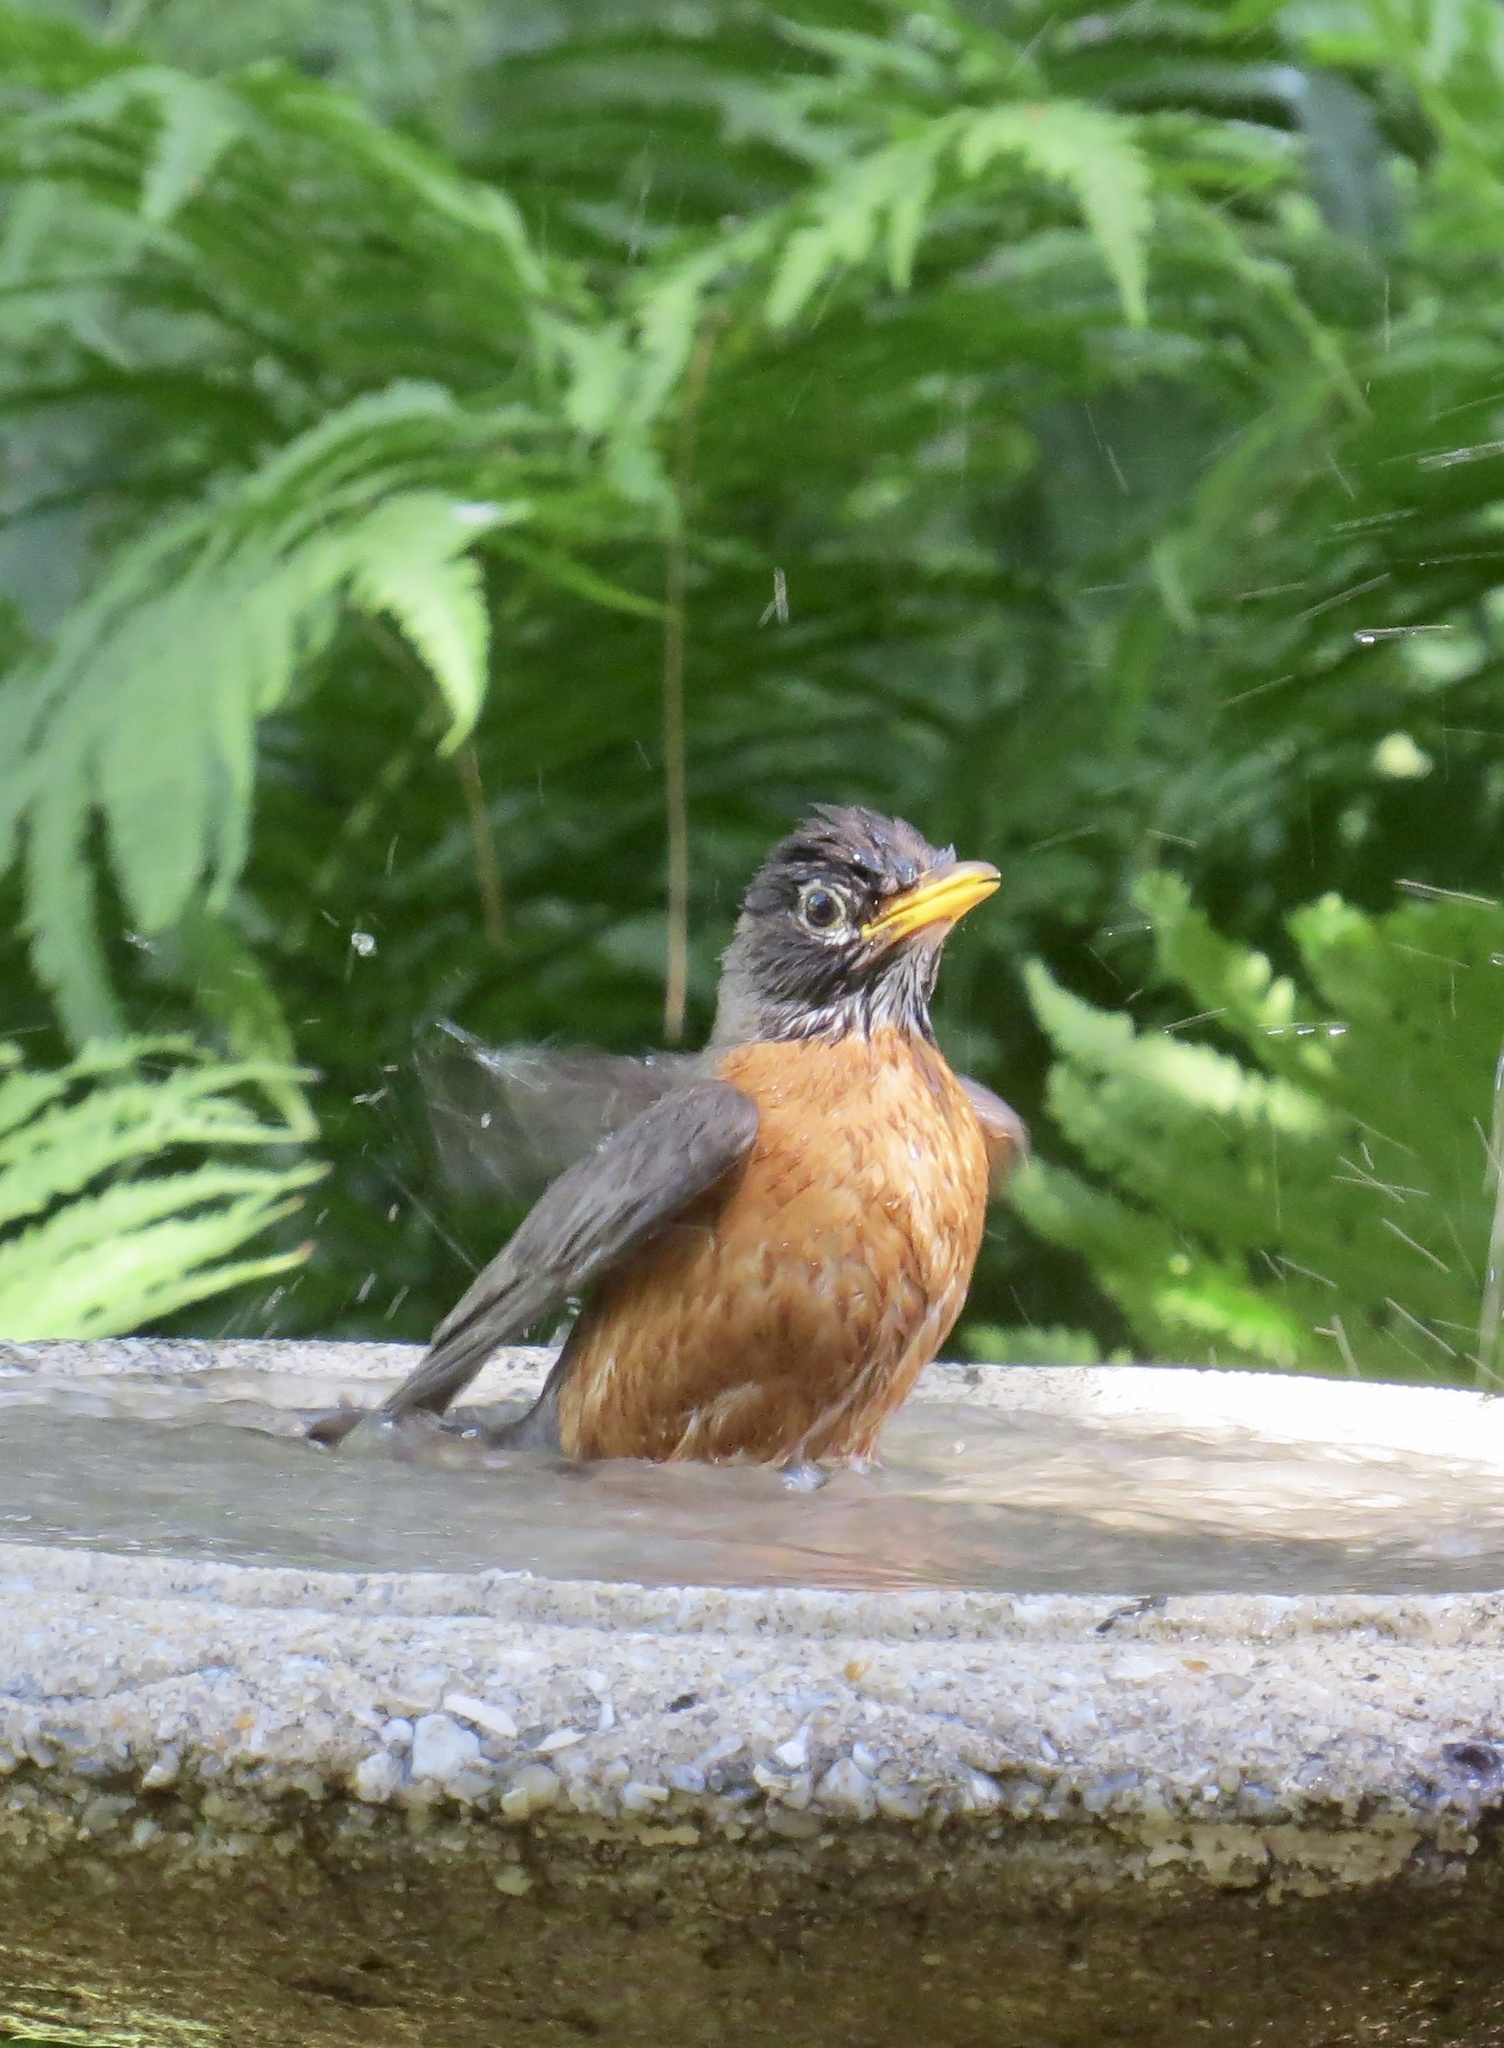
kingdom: Animalia
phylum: Chordata
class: Aves
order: Passeriformes
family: Turdidae
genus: Turdus
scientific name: Turdus migratorius
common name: American robin
